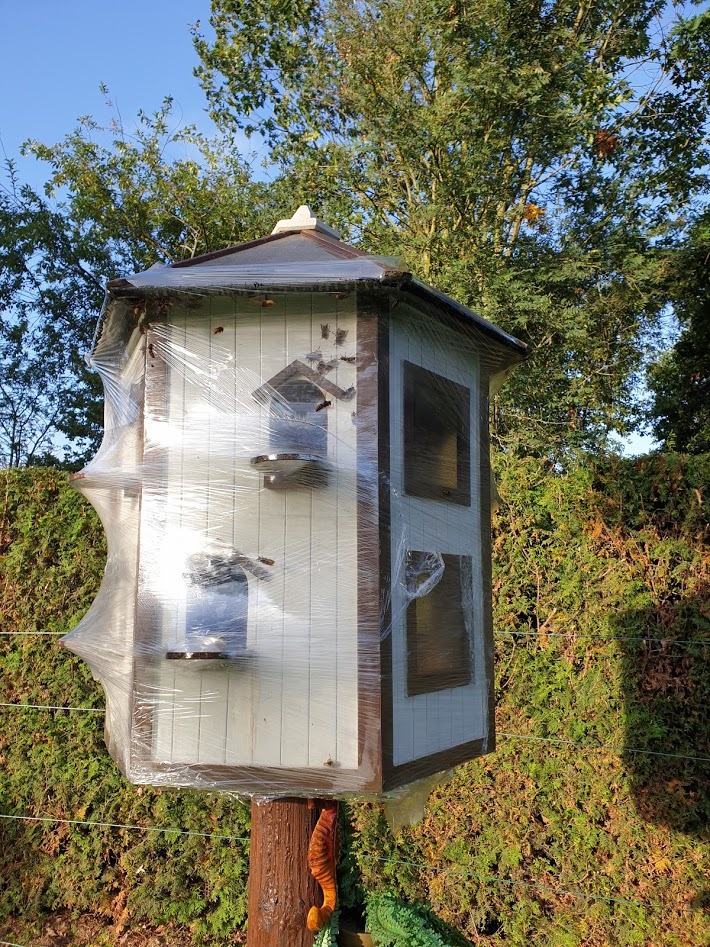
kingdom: Animalia
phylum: Arthropoda
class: Insecta
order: Hymenoptera
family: Vespidae
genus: Vespa
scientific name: Vespa crabro
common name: Hornet
